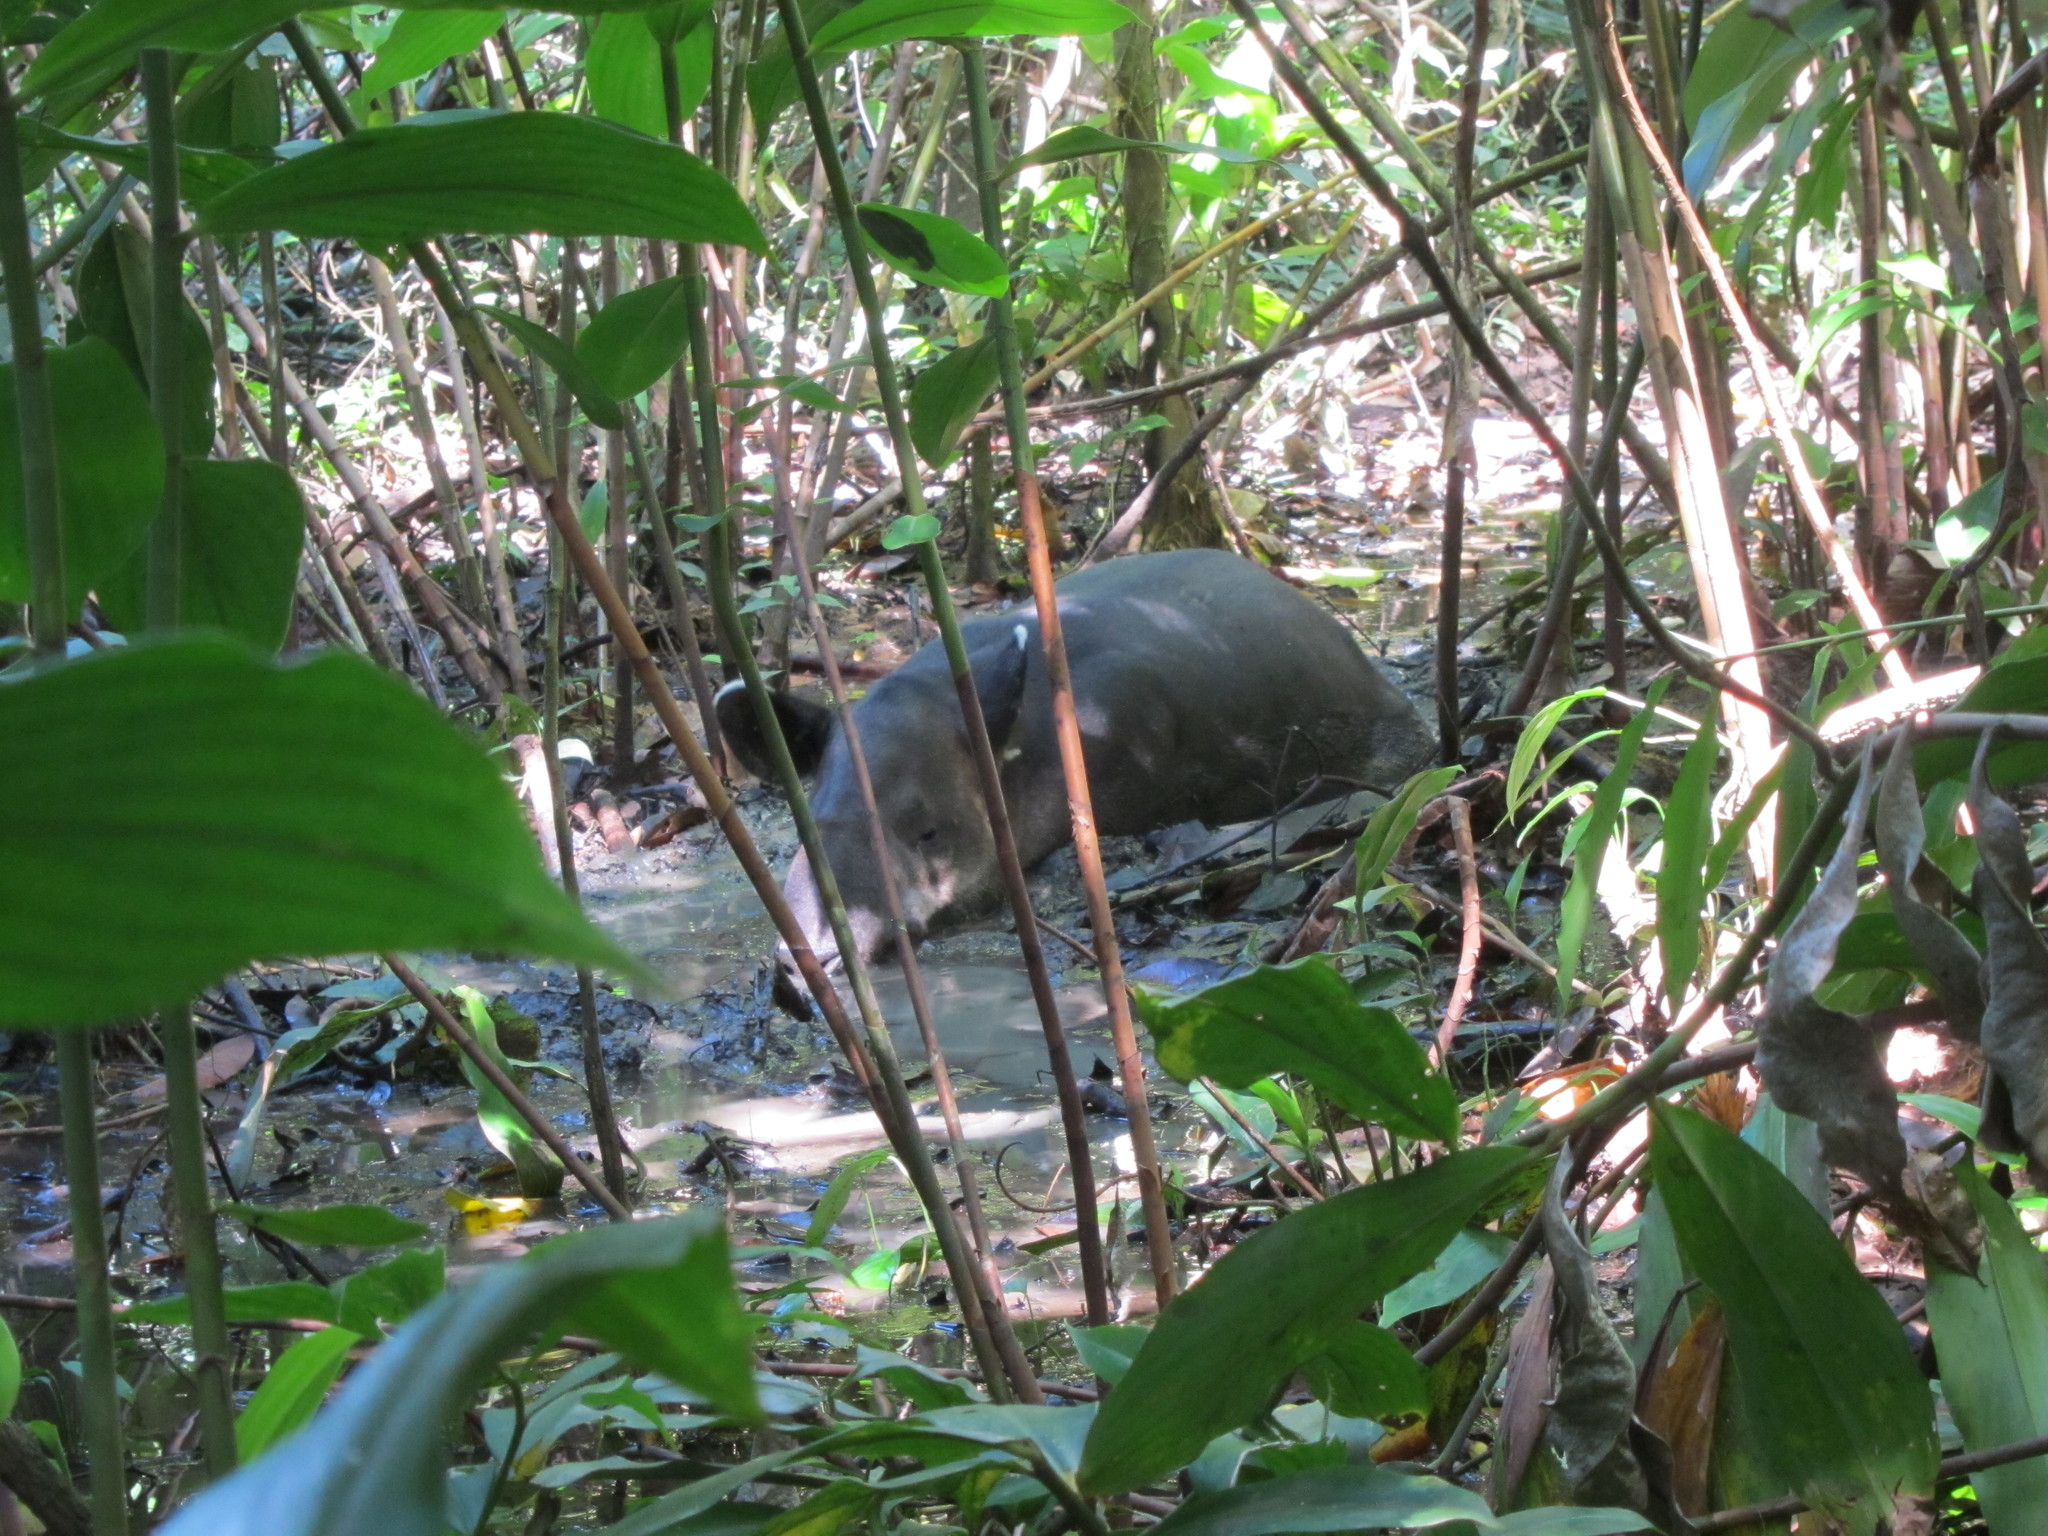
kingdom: Animalia
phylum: Chordata
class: Mammalia
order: Perissodactyla
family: Tapiridae
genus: Tapirella
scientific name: Tapirella bairdii
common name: Baird's tapir
